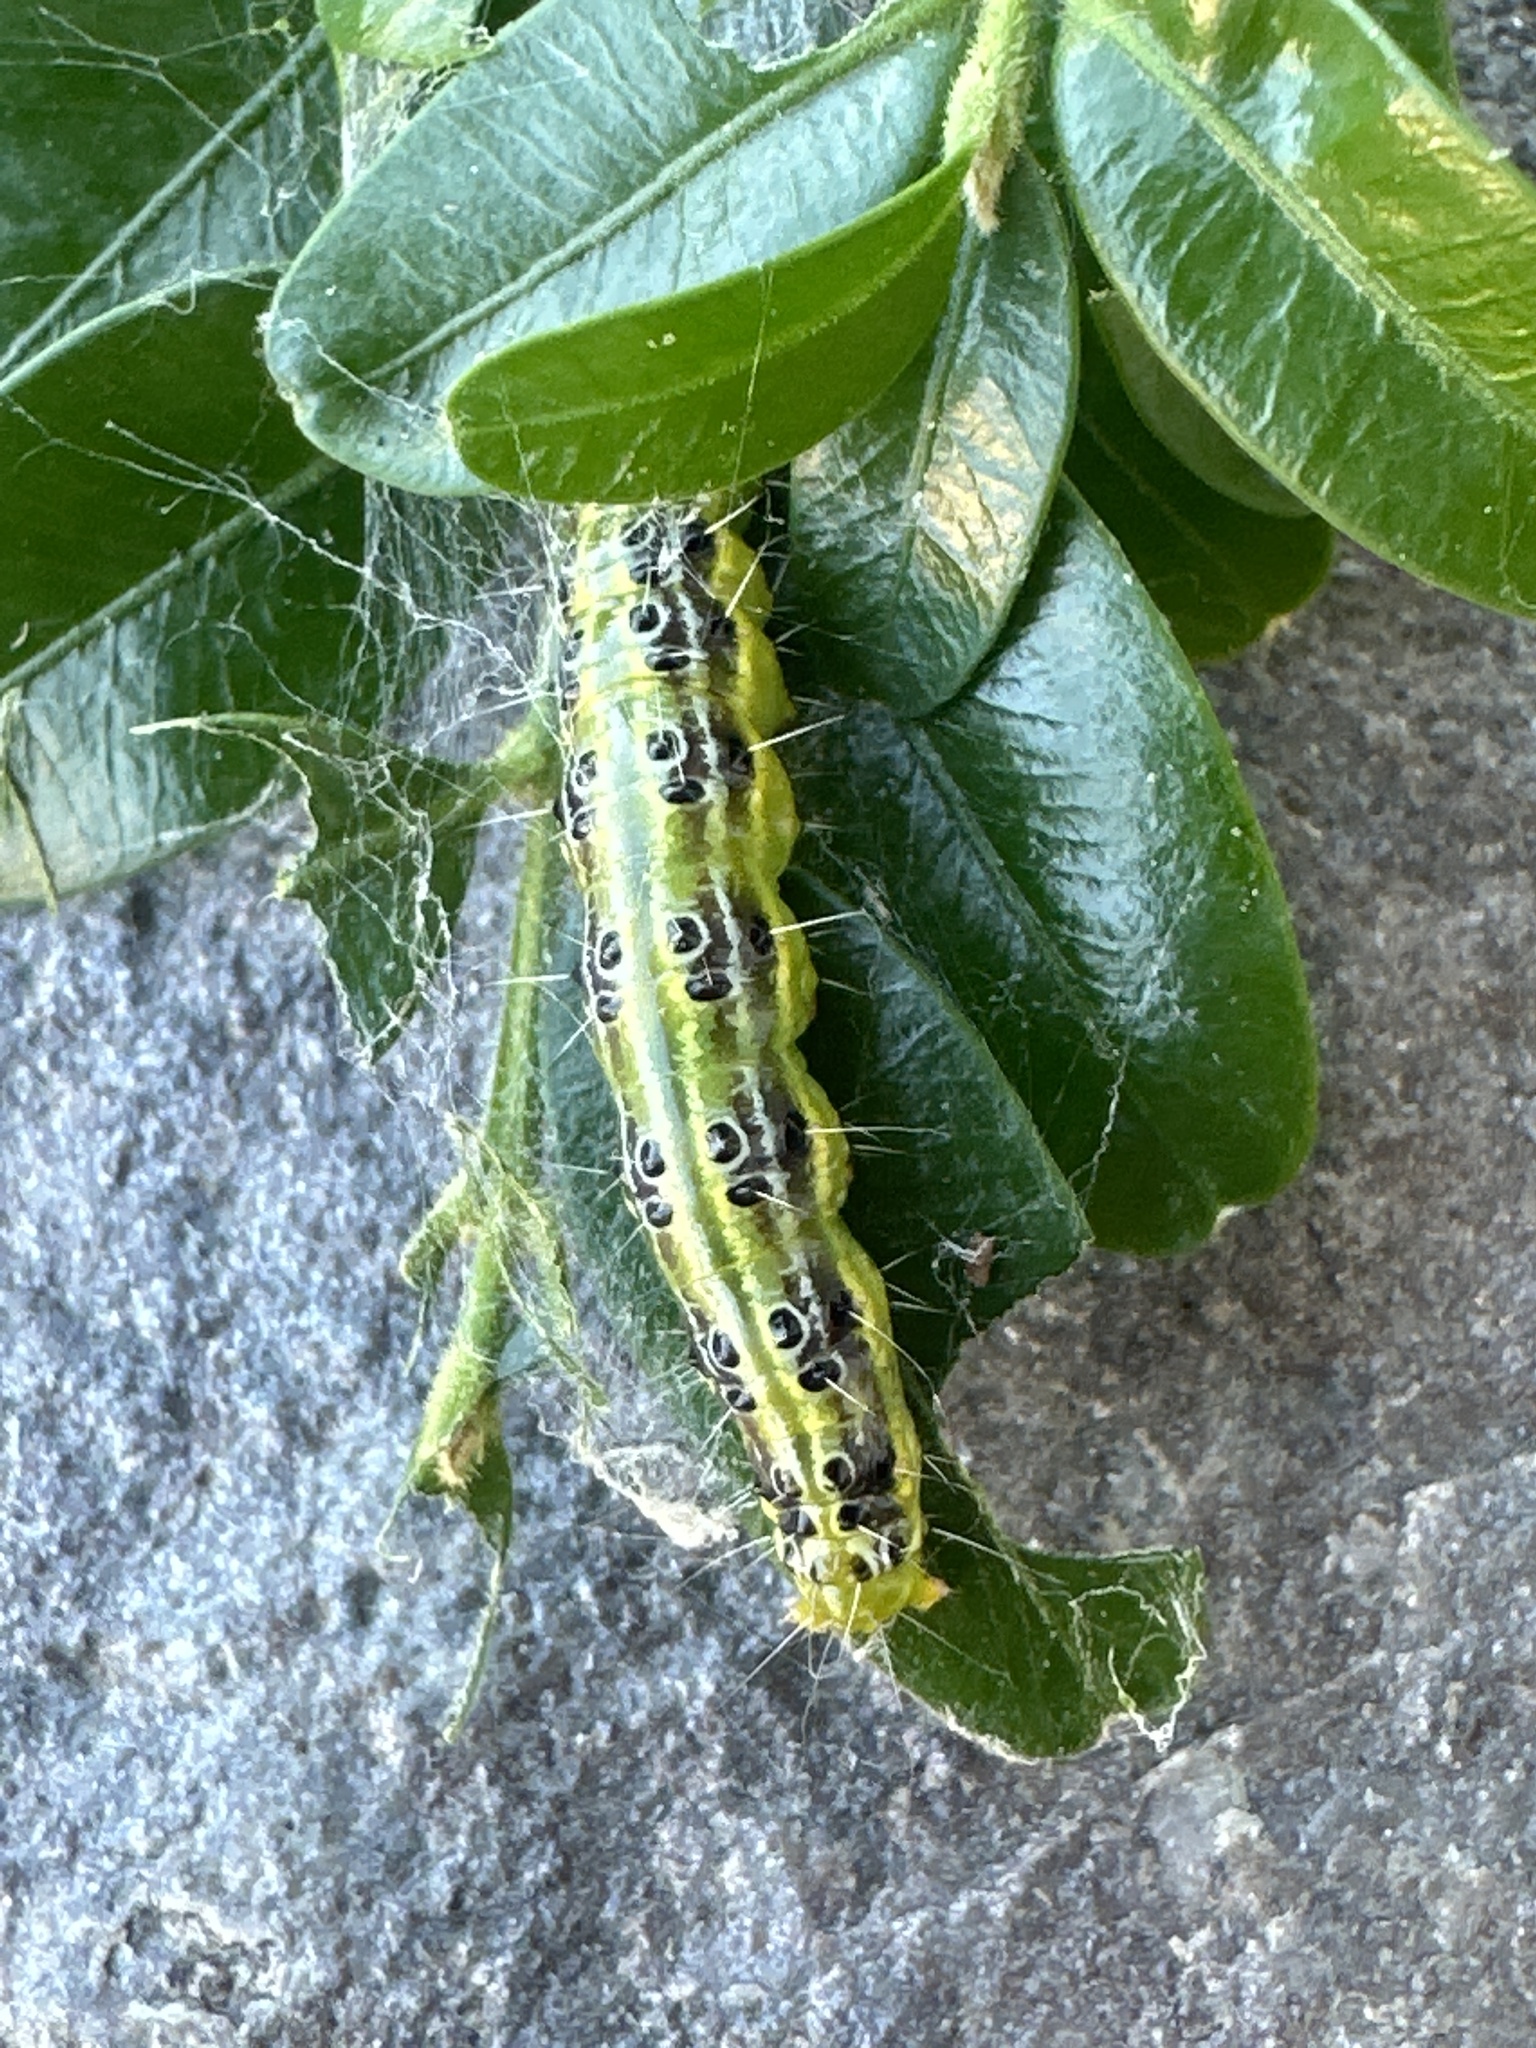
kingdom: Animalia
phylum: Arthropoda
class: Insecta
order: Lepidoptera
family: Crambidae
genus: Cydalima
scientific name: Cydalima perspectalis
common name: Box tree moth
